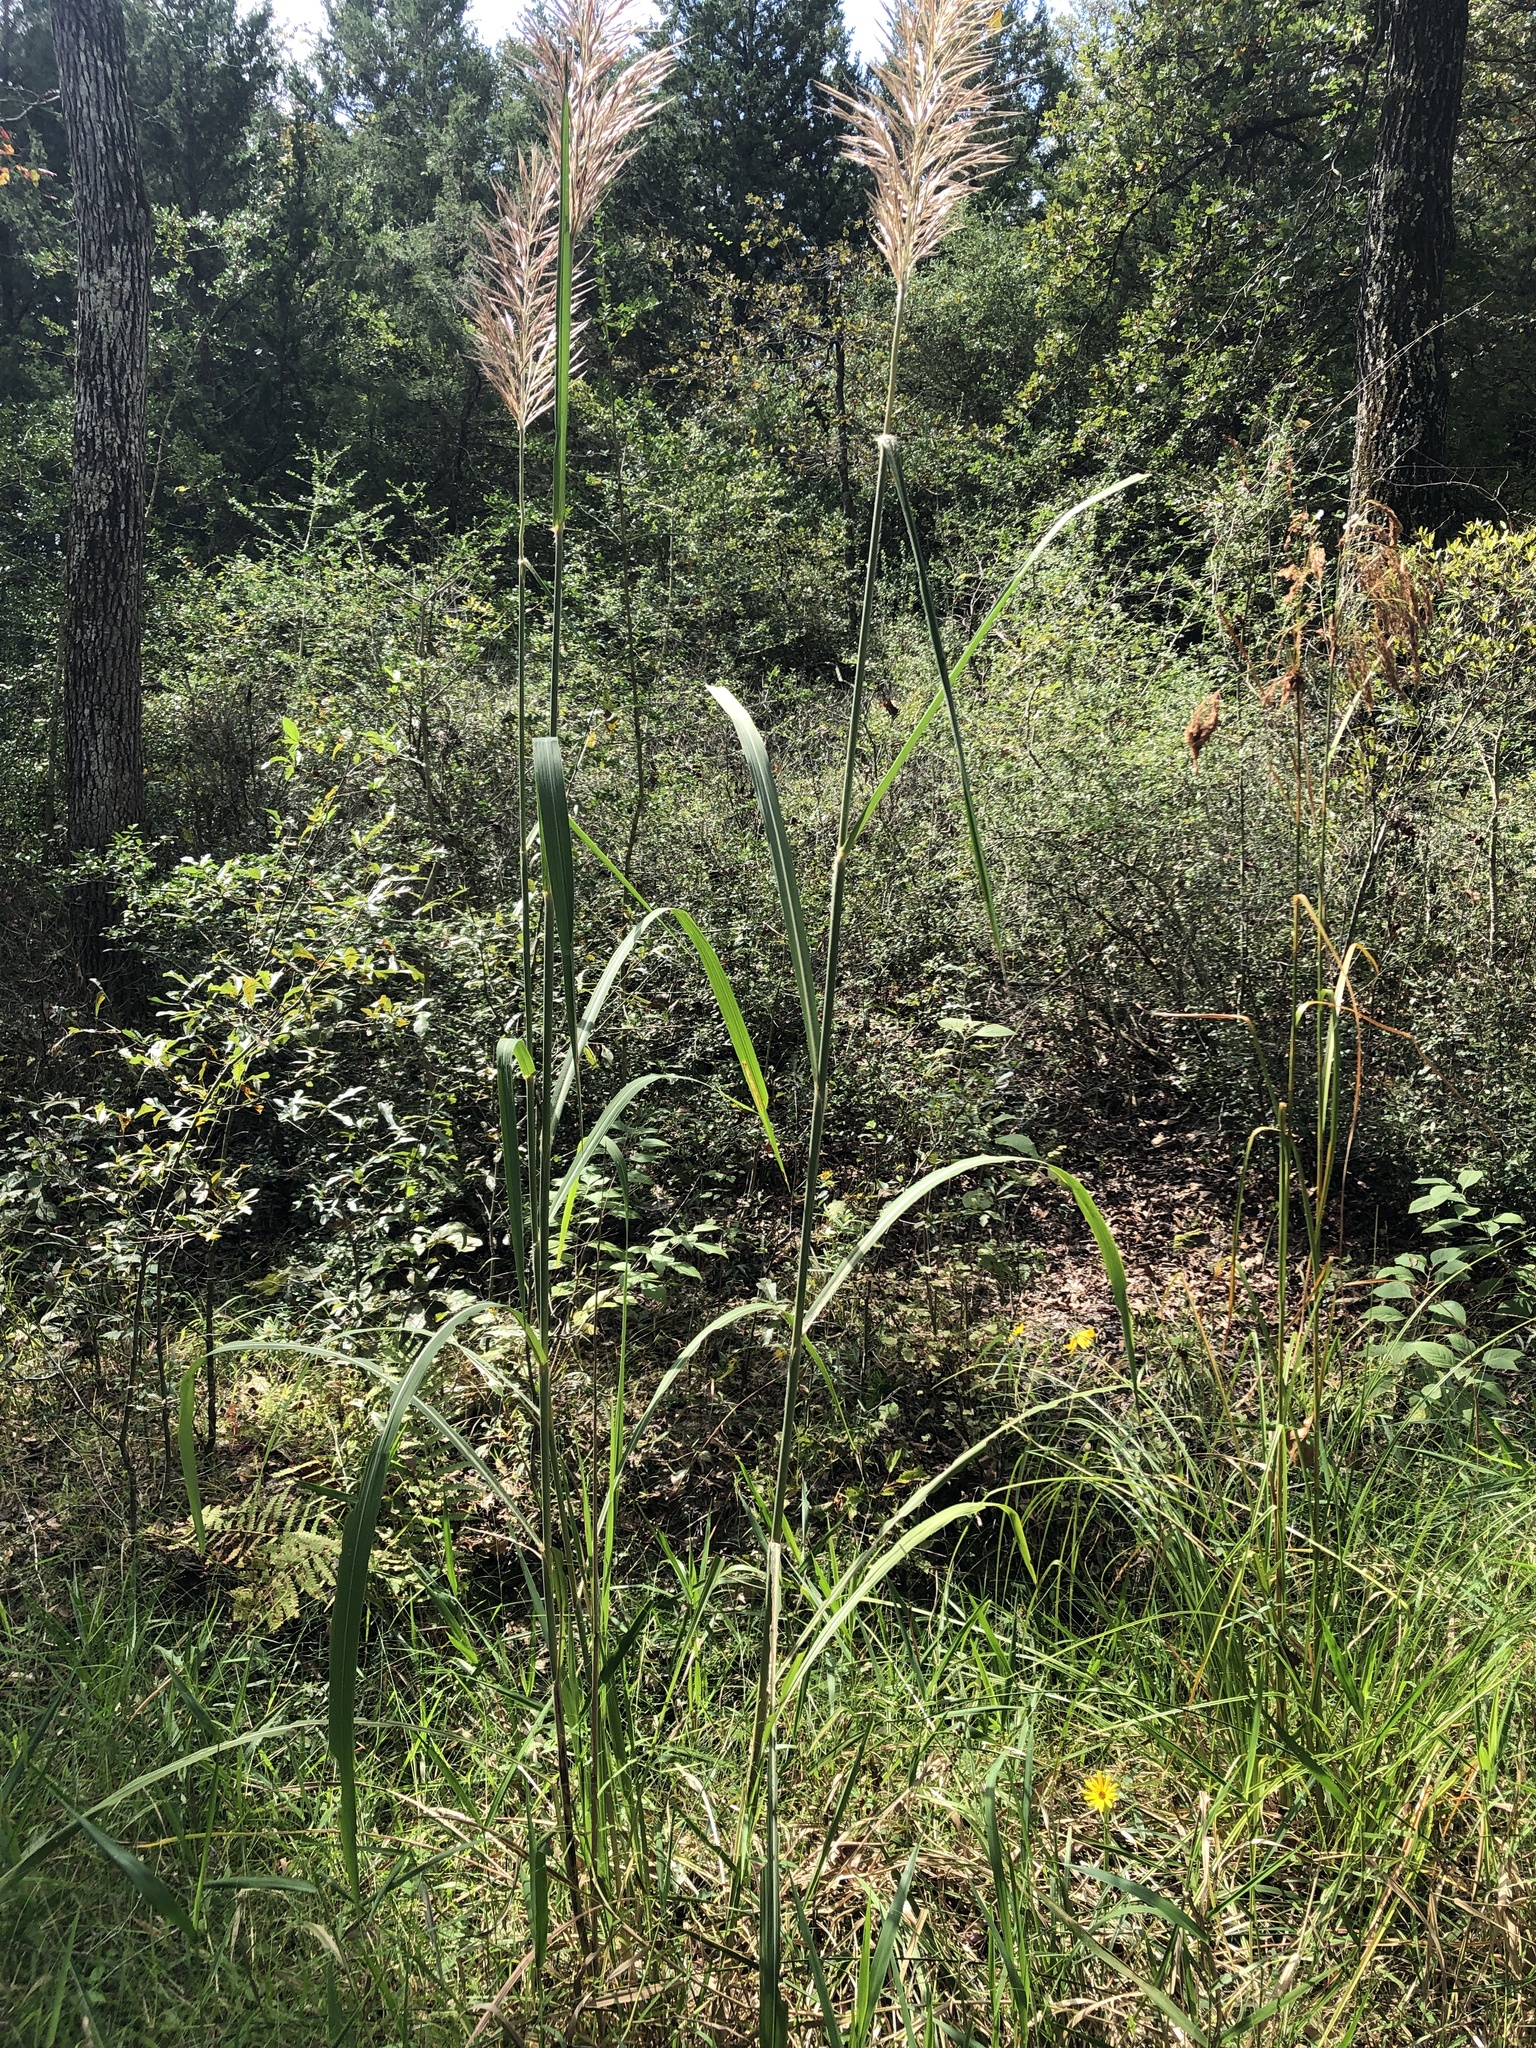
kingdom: Plantae
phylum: Tracheophyta
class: Liliopsida
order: Poales
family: Poaceae
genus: Erianthus
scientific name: Erianthus giganteus
